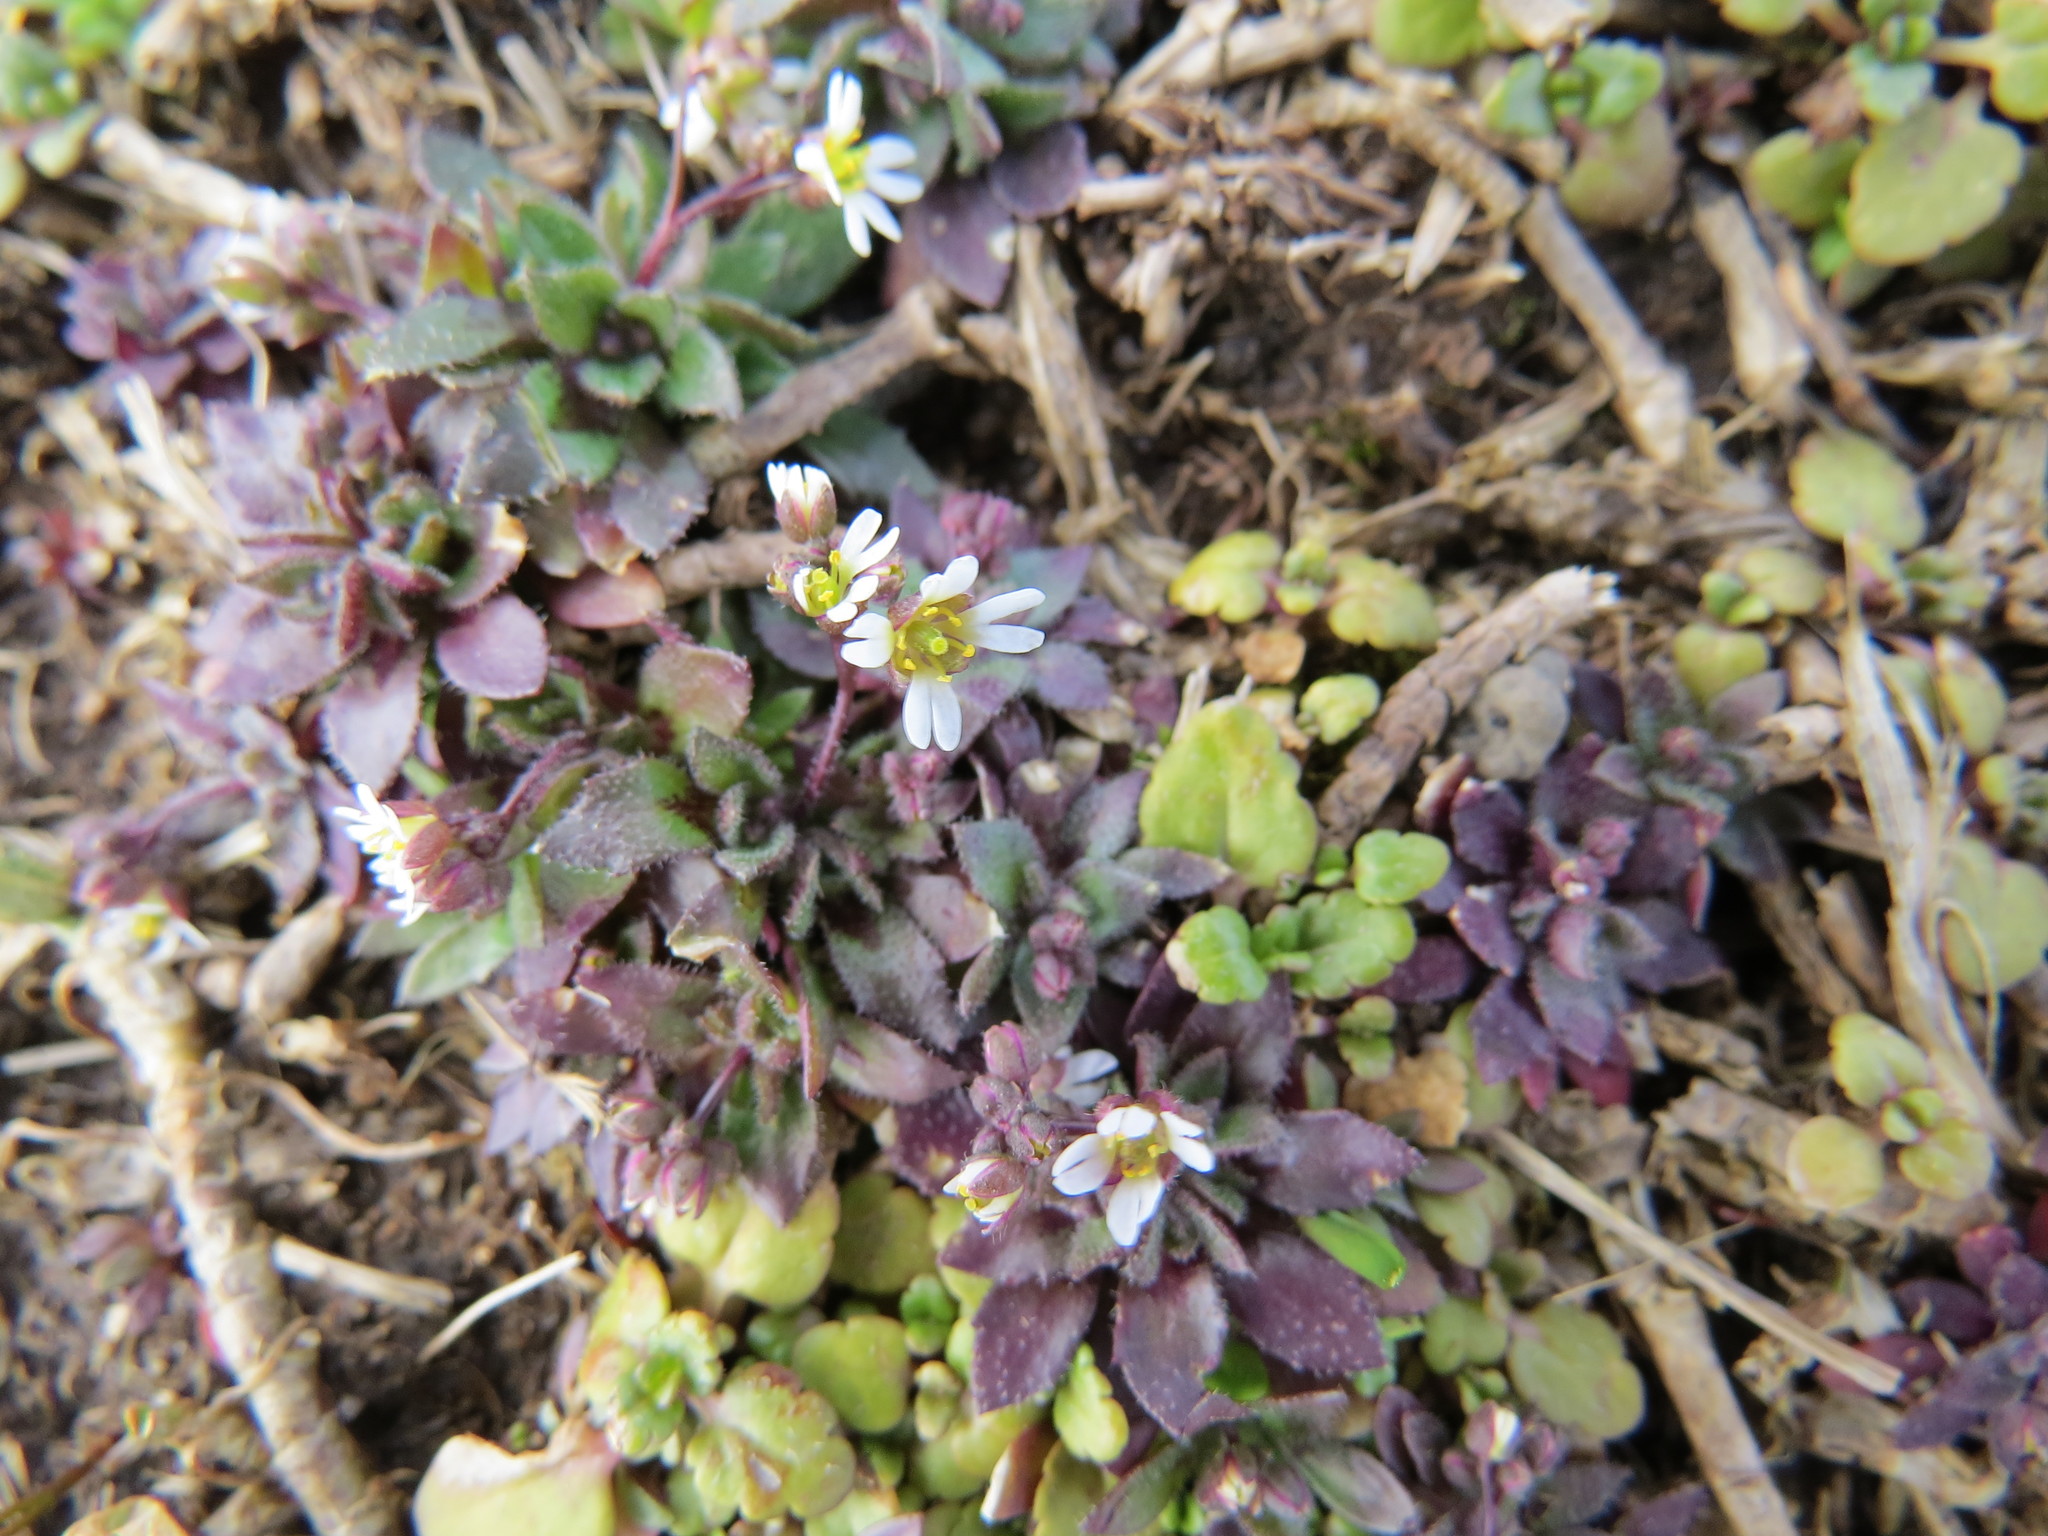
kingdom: Plantae
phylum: Tracheophyta
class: Magnoliopsida
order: Brassicales
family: Brassicaceae
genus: Draba
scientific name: Draba verna
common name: Spring draba
